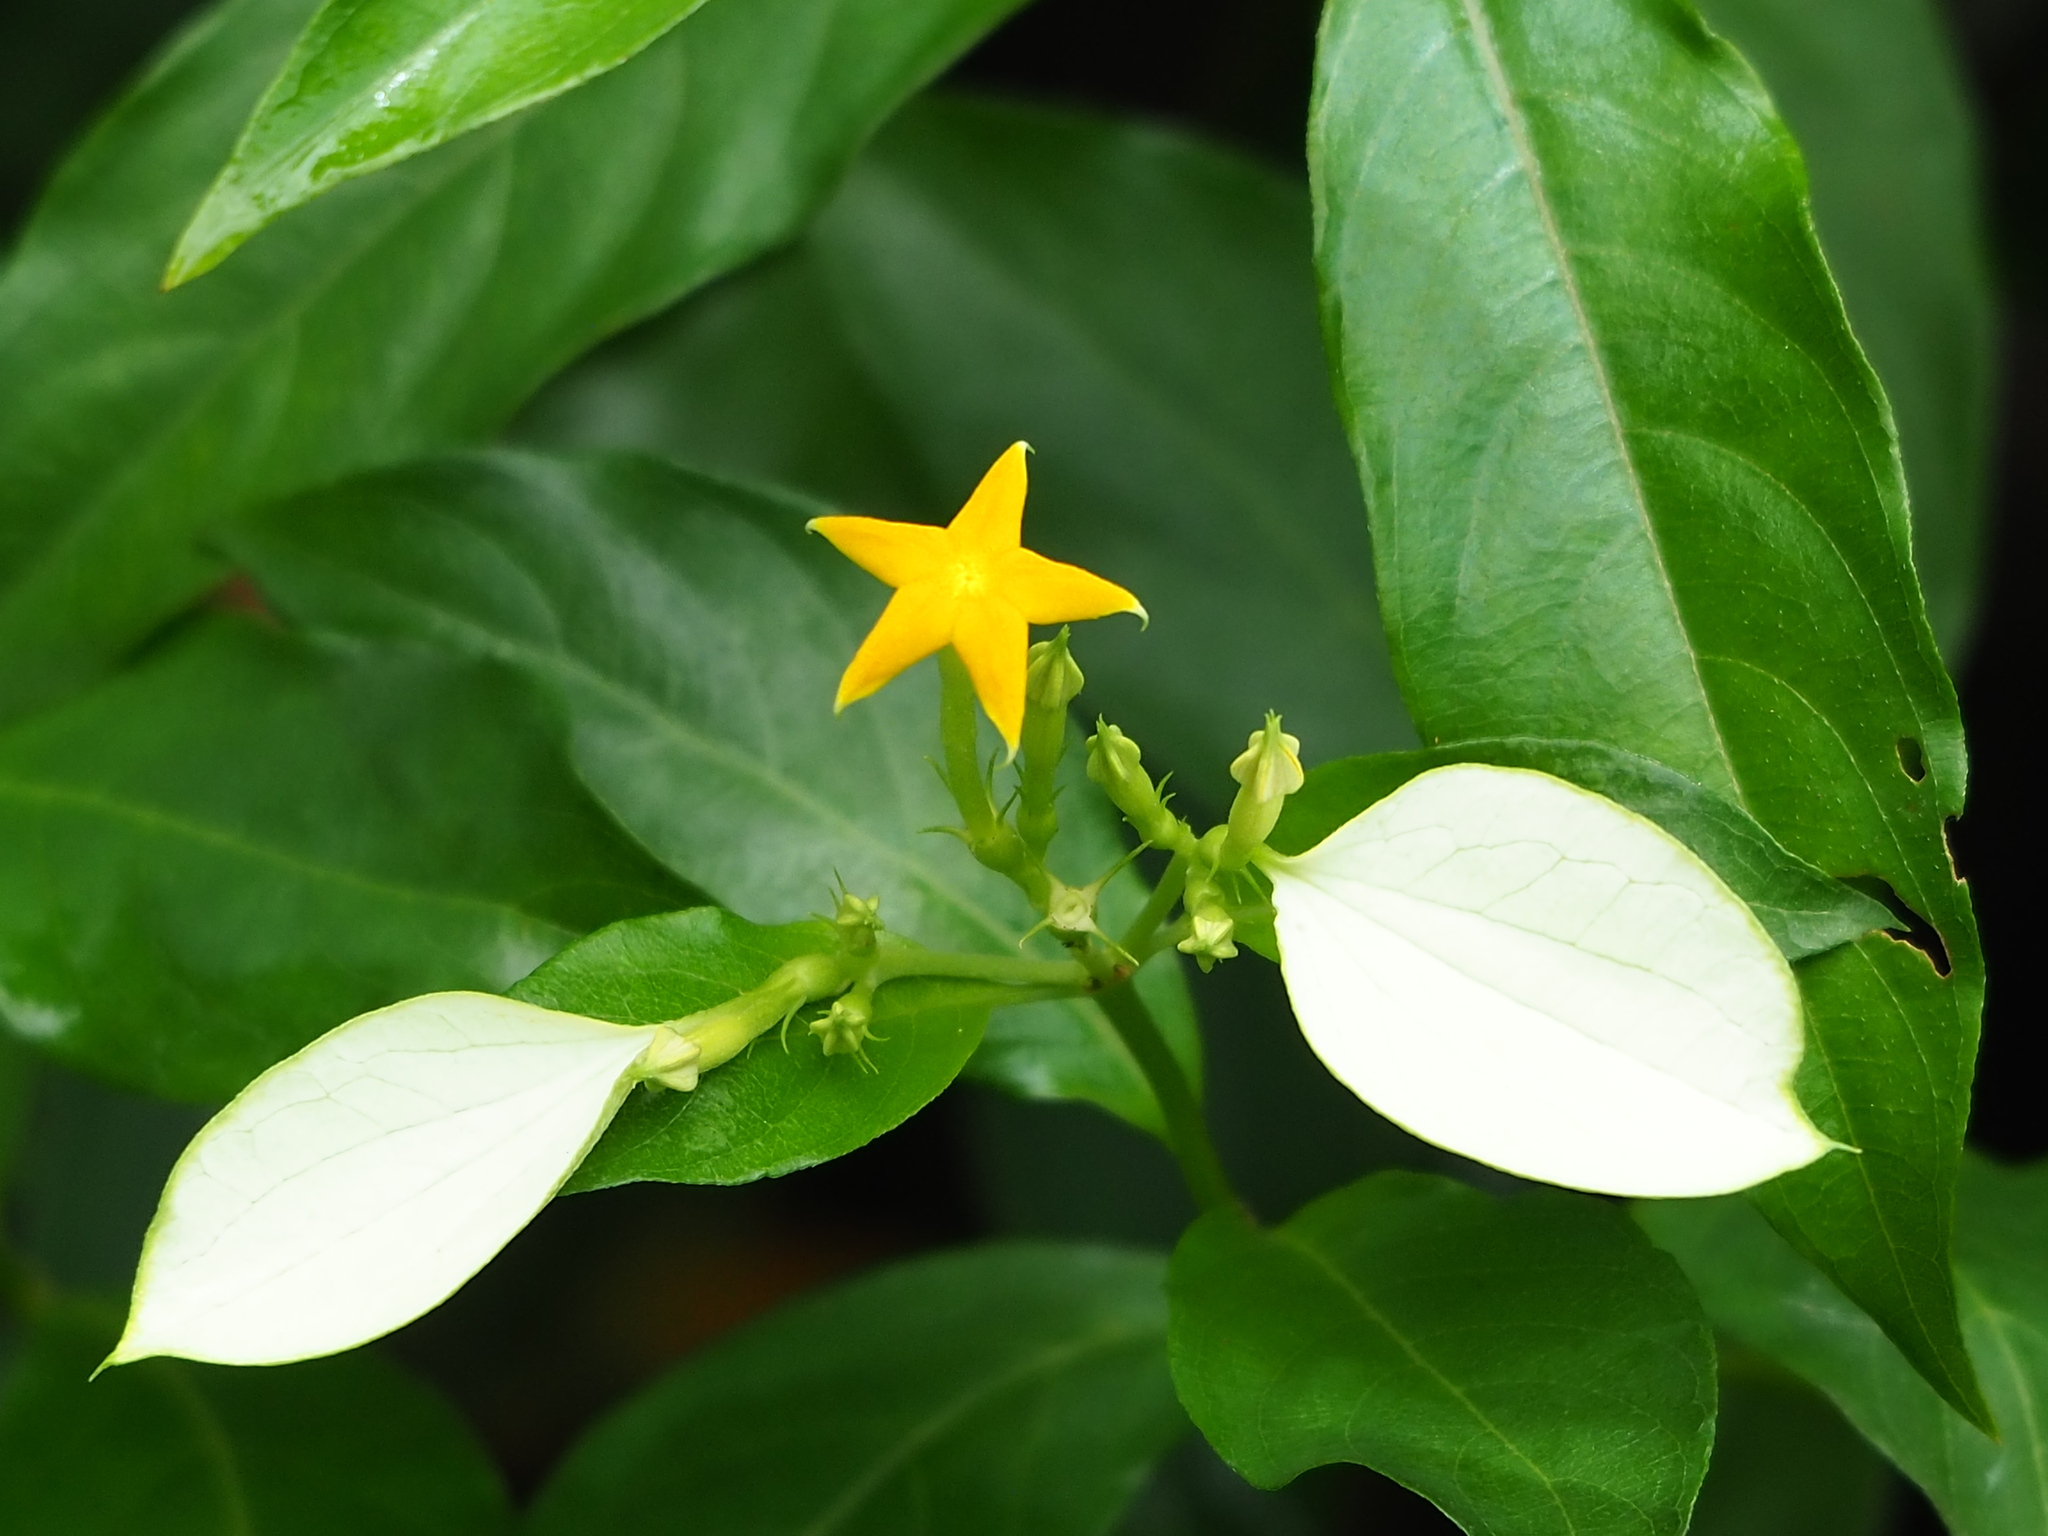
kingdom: Plantae
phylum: Tracheophyta
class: Magnoliopsida
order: Gentianales
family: Rubiaceae
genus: Mussaenda
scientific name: Mussaenda formosana
